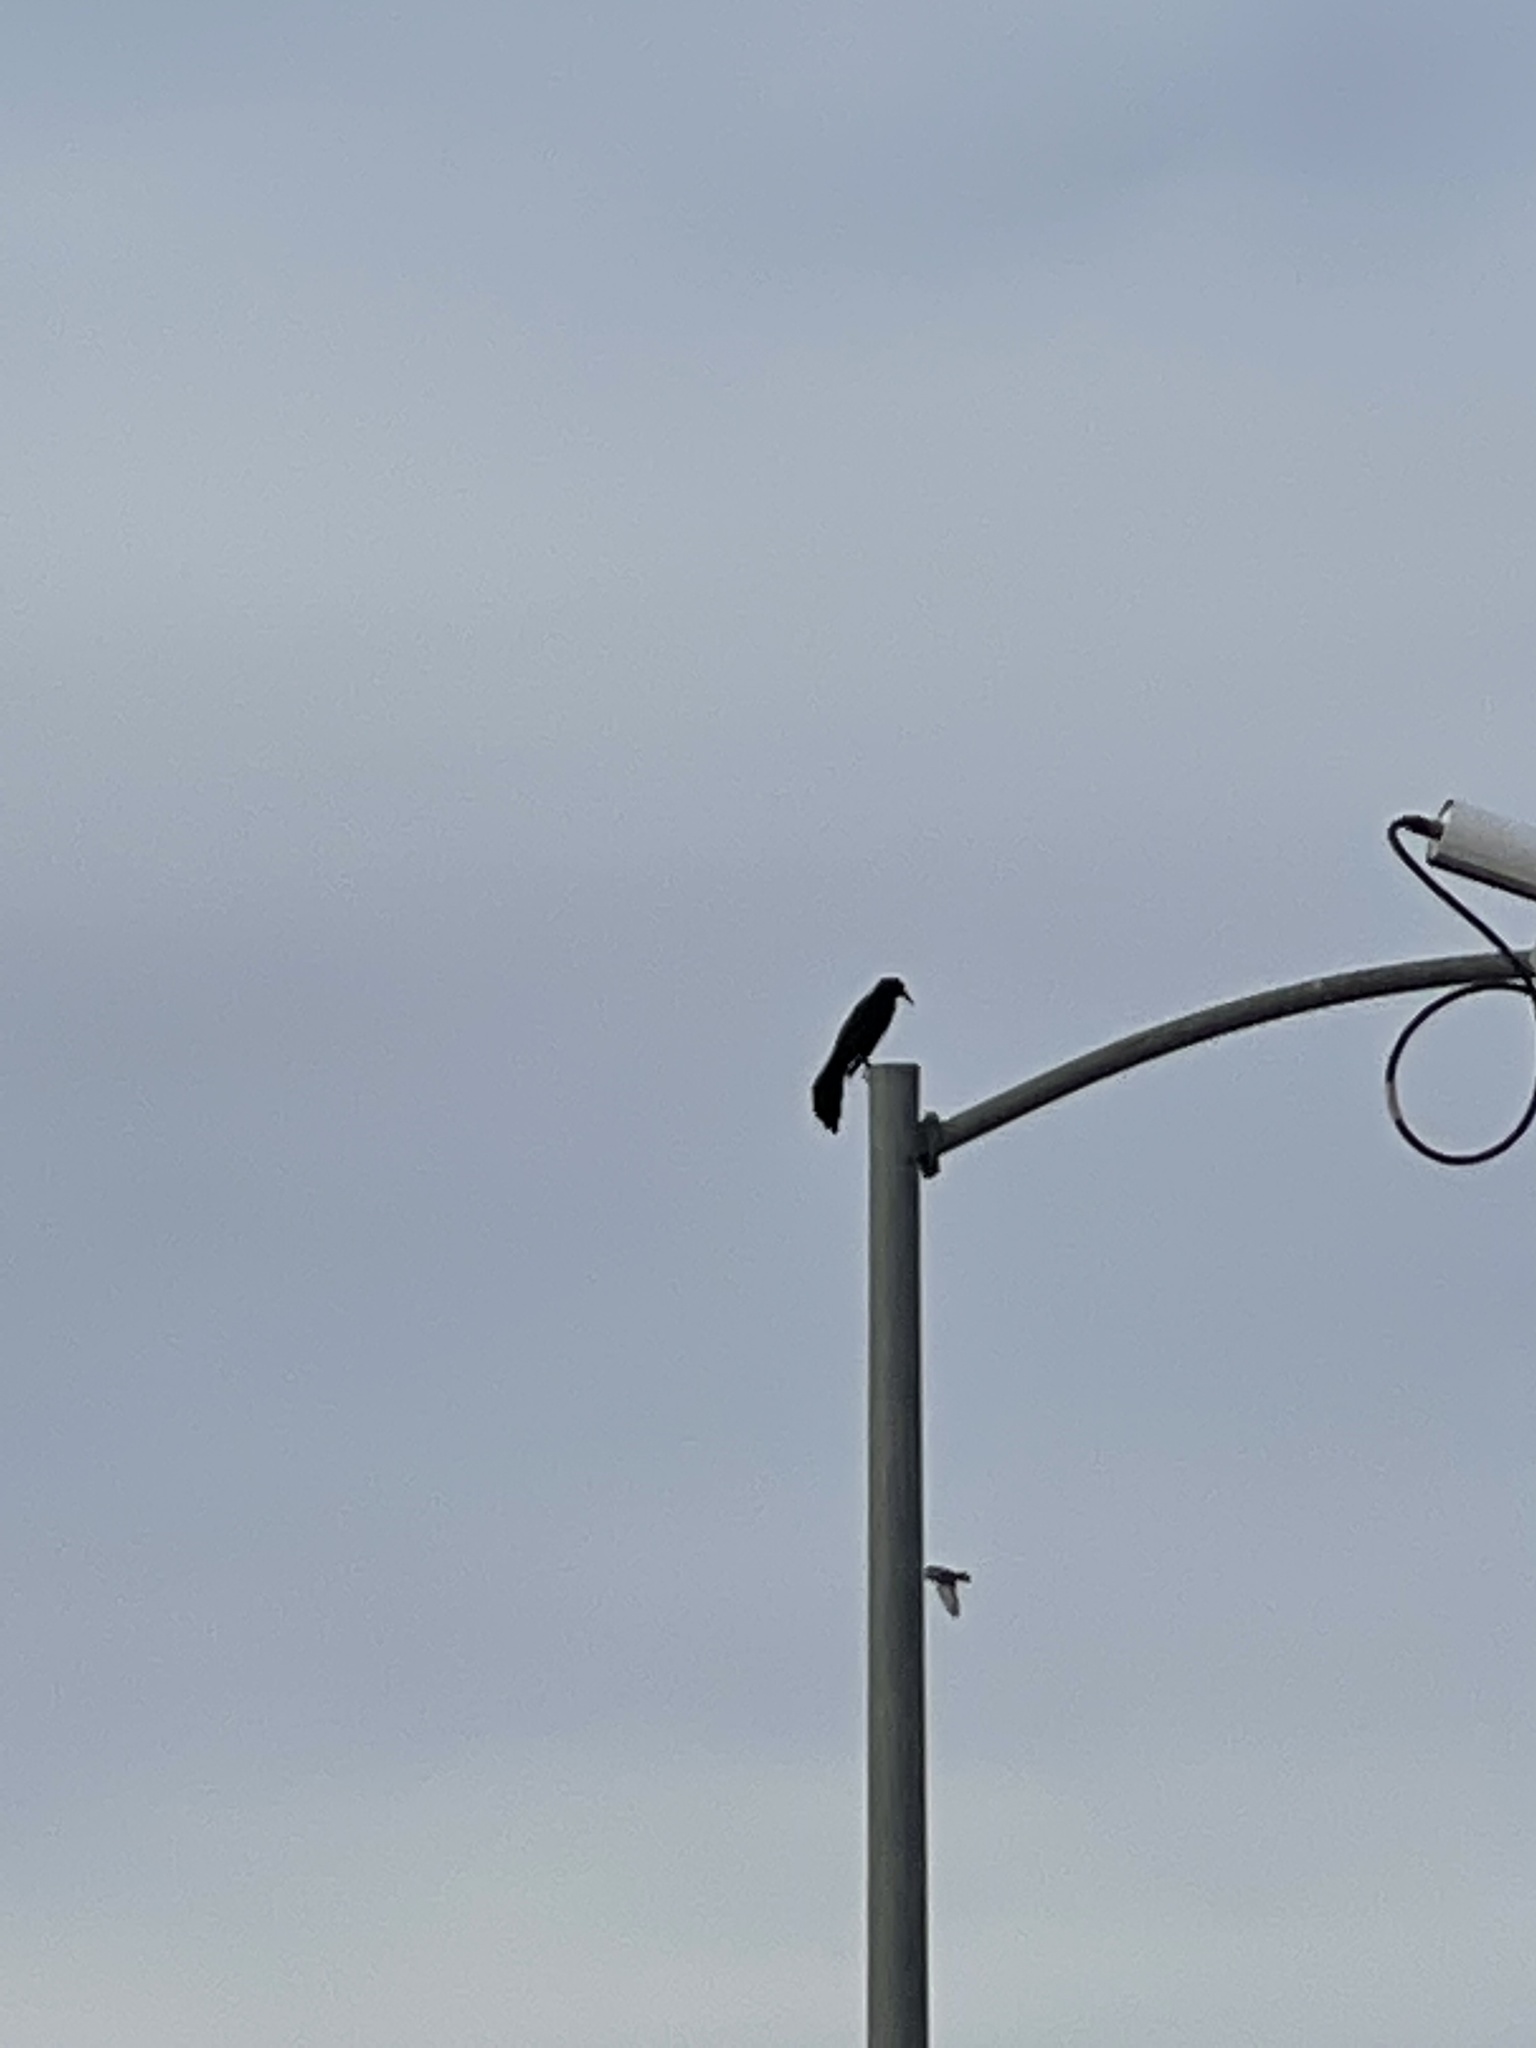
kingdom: Animalia
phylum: Chordata
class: Aves
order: Passeriformes
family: Icteridae
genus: Quiscalus
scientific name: Quiscalus mexicanus
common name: Great-tailed grackle
